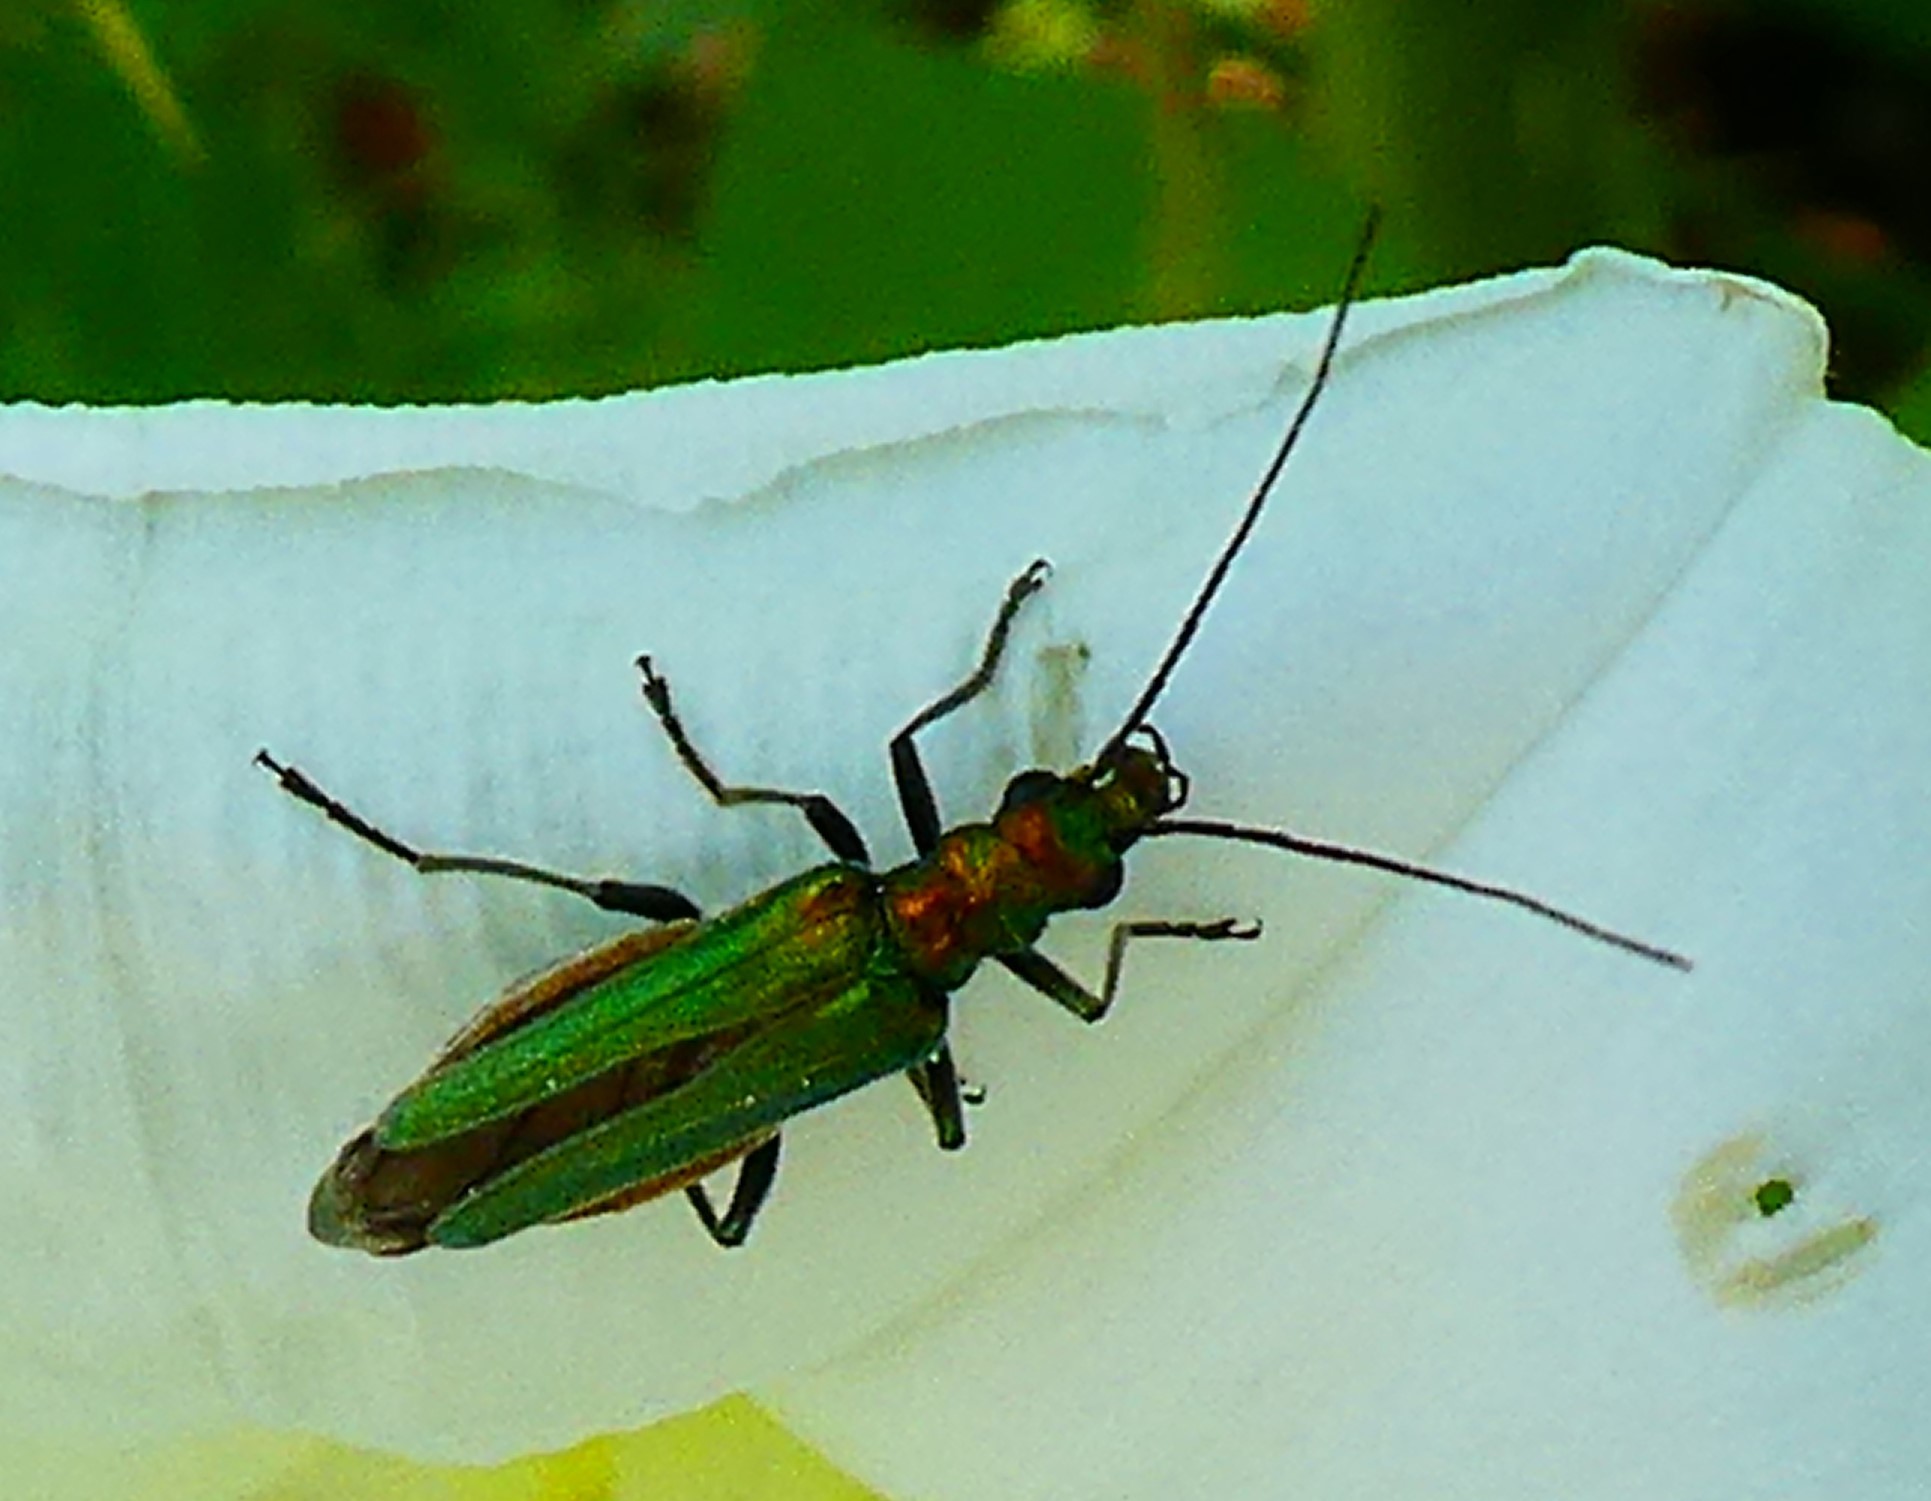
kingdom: Animalia
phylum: Arthropoda
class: Insecta
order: Coleoptera
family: Oedemeridae
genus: Oedemera
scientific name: Oedemera nobilis
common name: Swollen-thighed beetle
